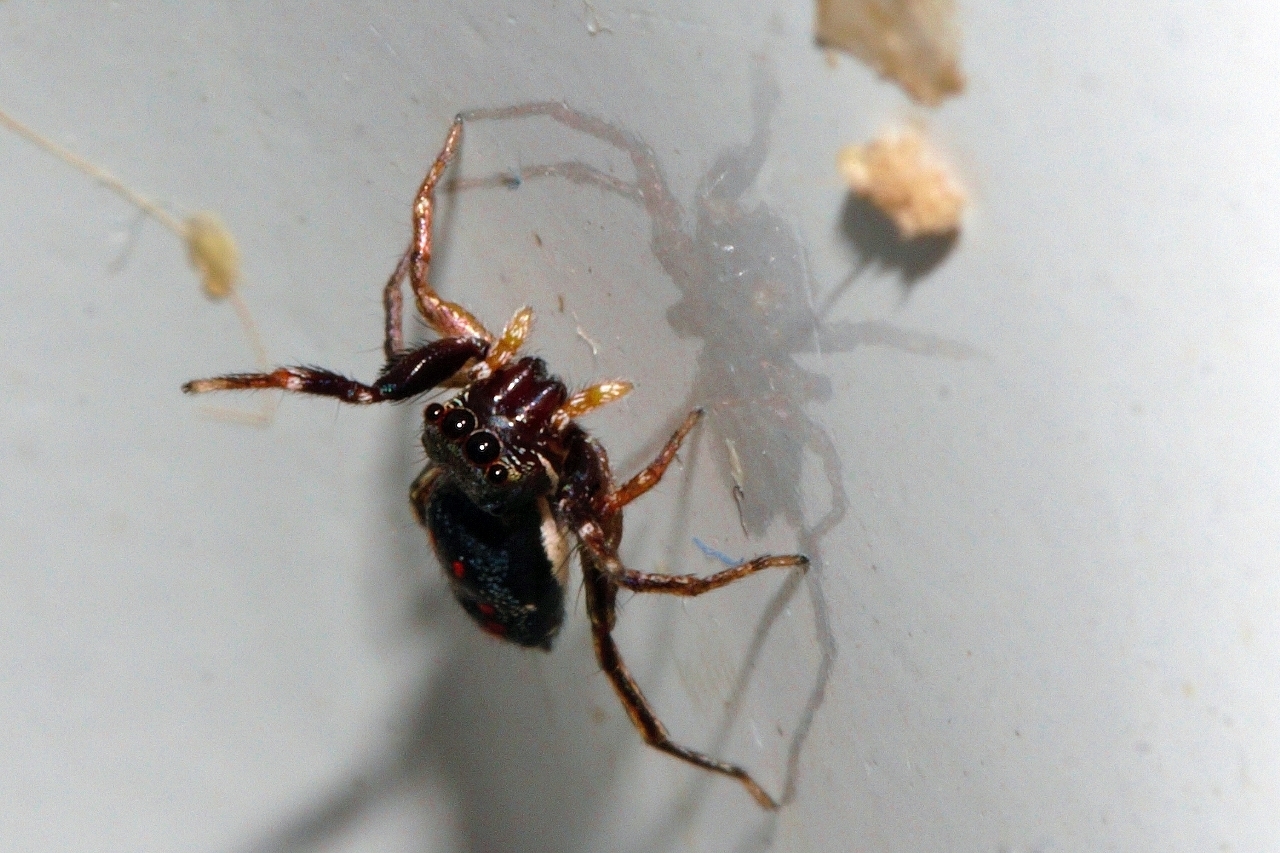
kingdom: Animalia
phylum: Arthropoda
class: Arachnida
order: Araneae
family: Salticidae
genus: Natta
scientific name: Natta horizontalis
